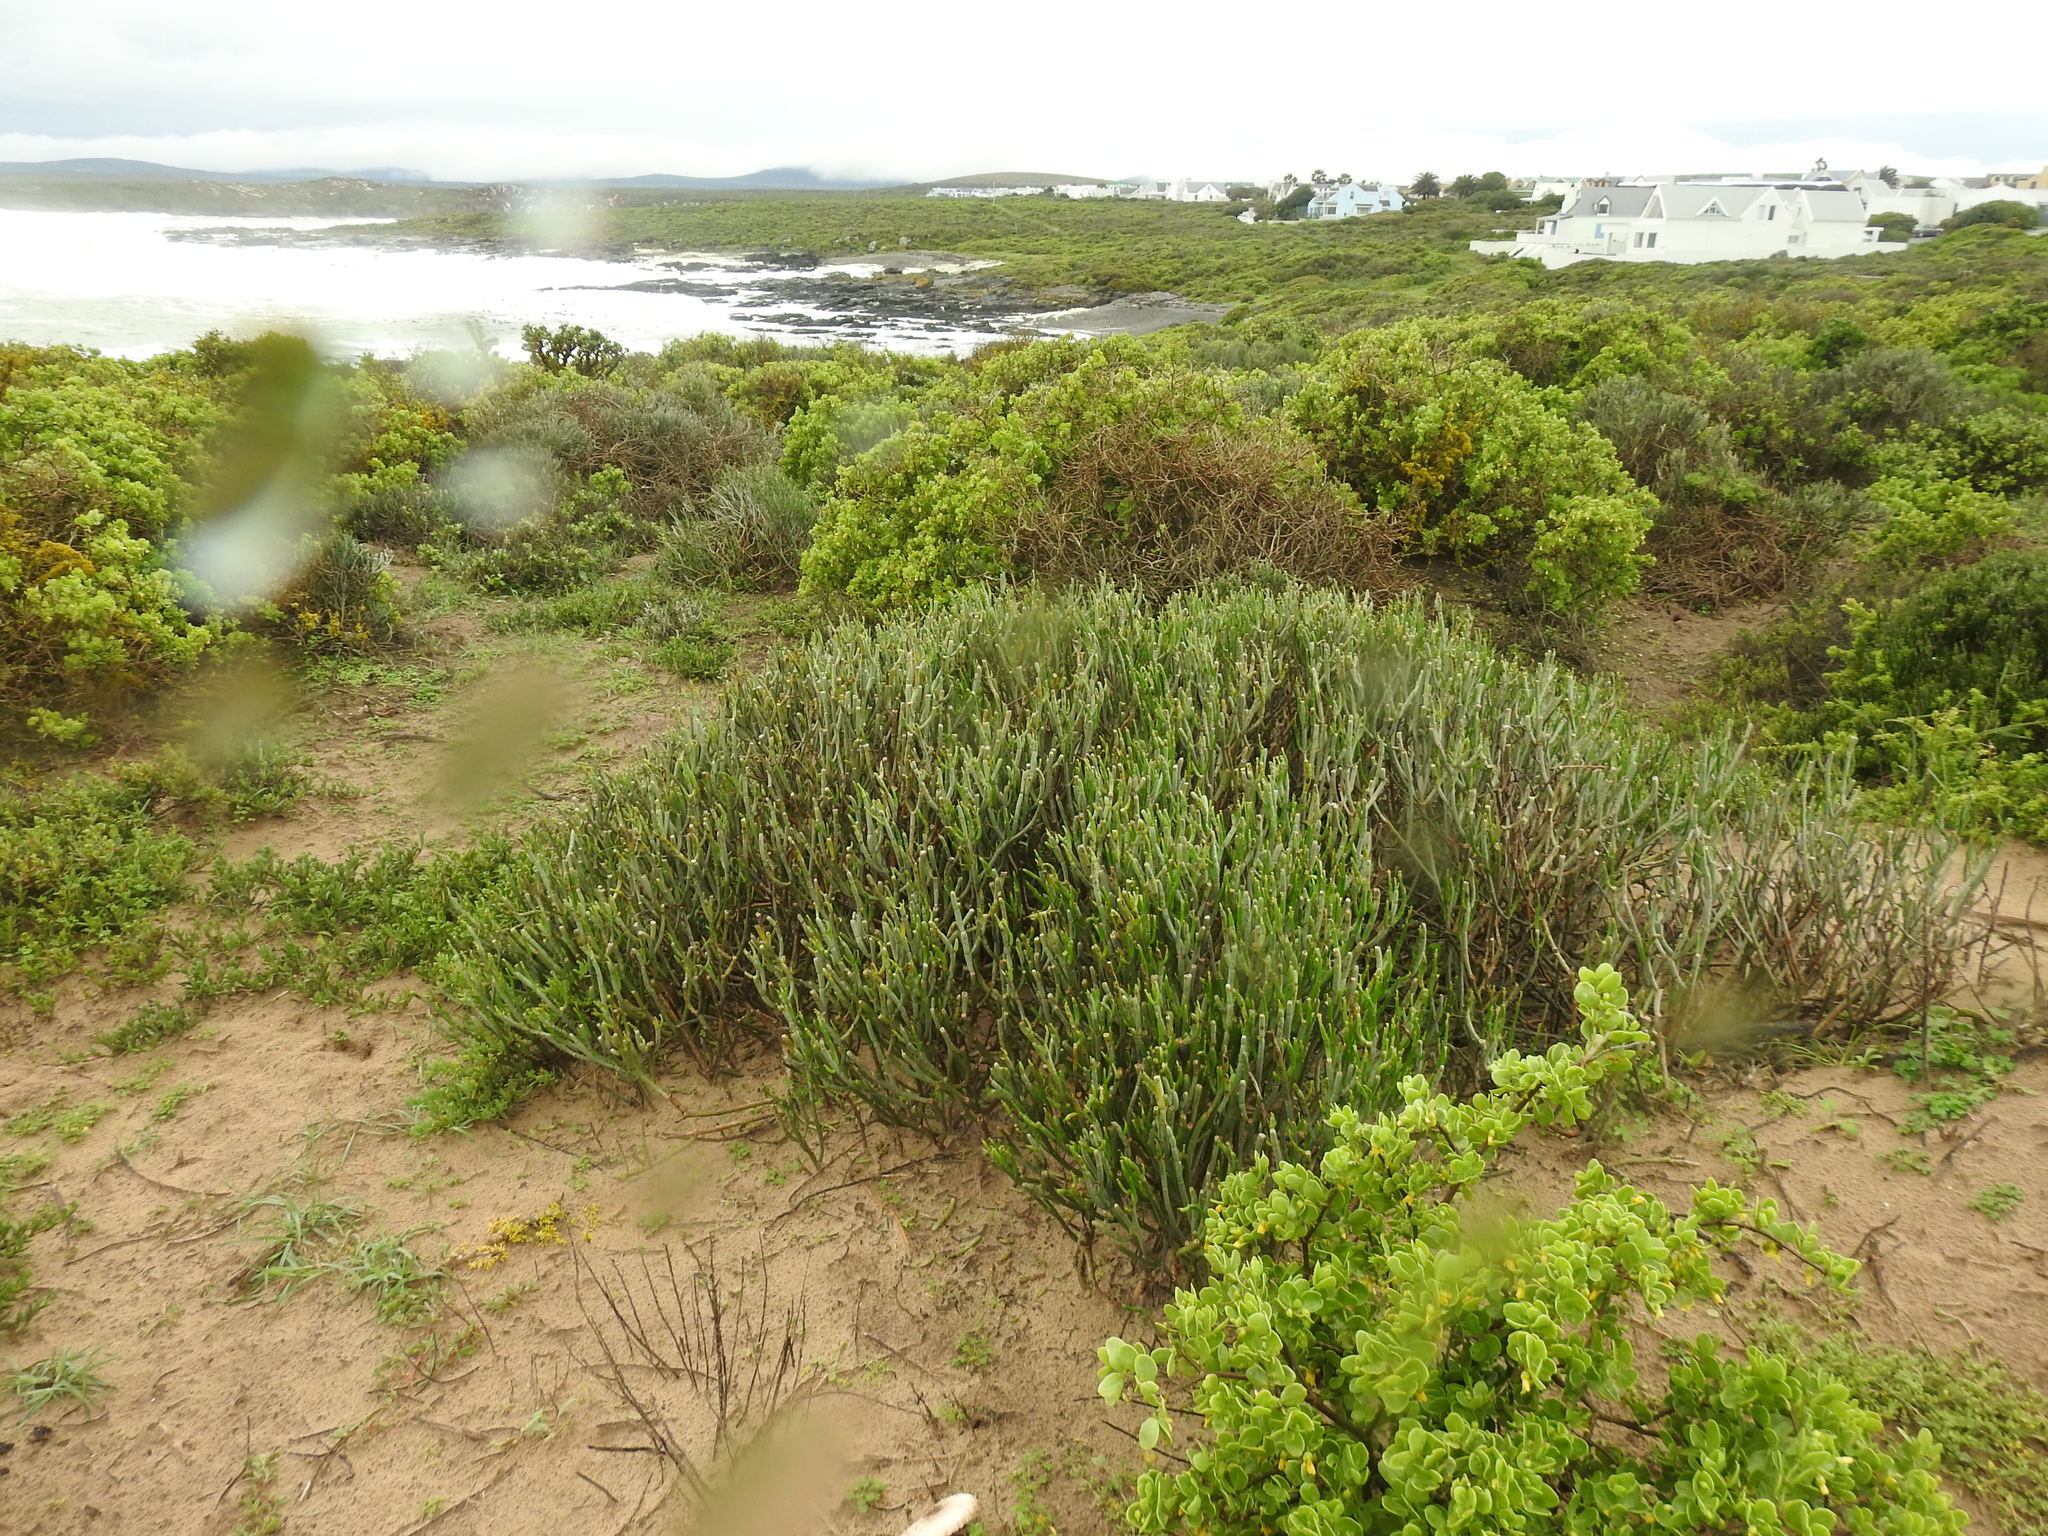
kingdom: Plantae
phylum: Tracheophyta
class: Magnoliopsida
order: Malpighiales
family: Euphorbiaceae
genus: Euphorbia
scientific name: Euphorbia burmanni
